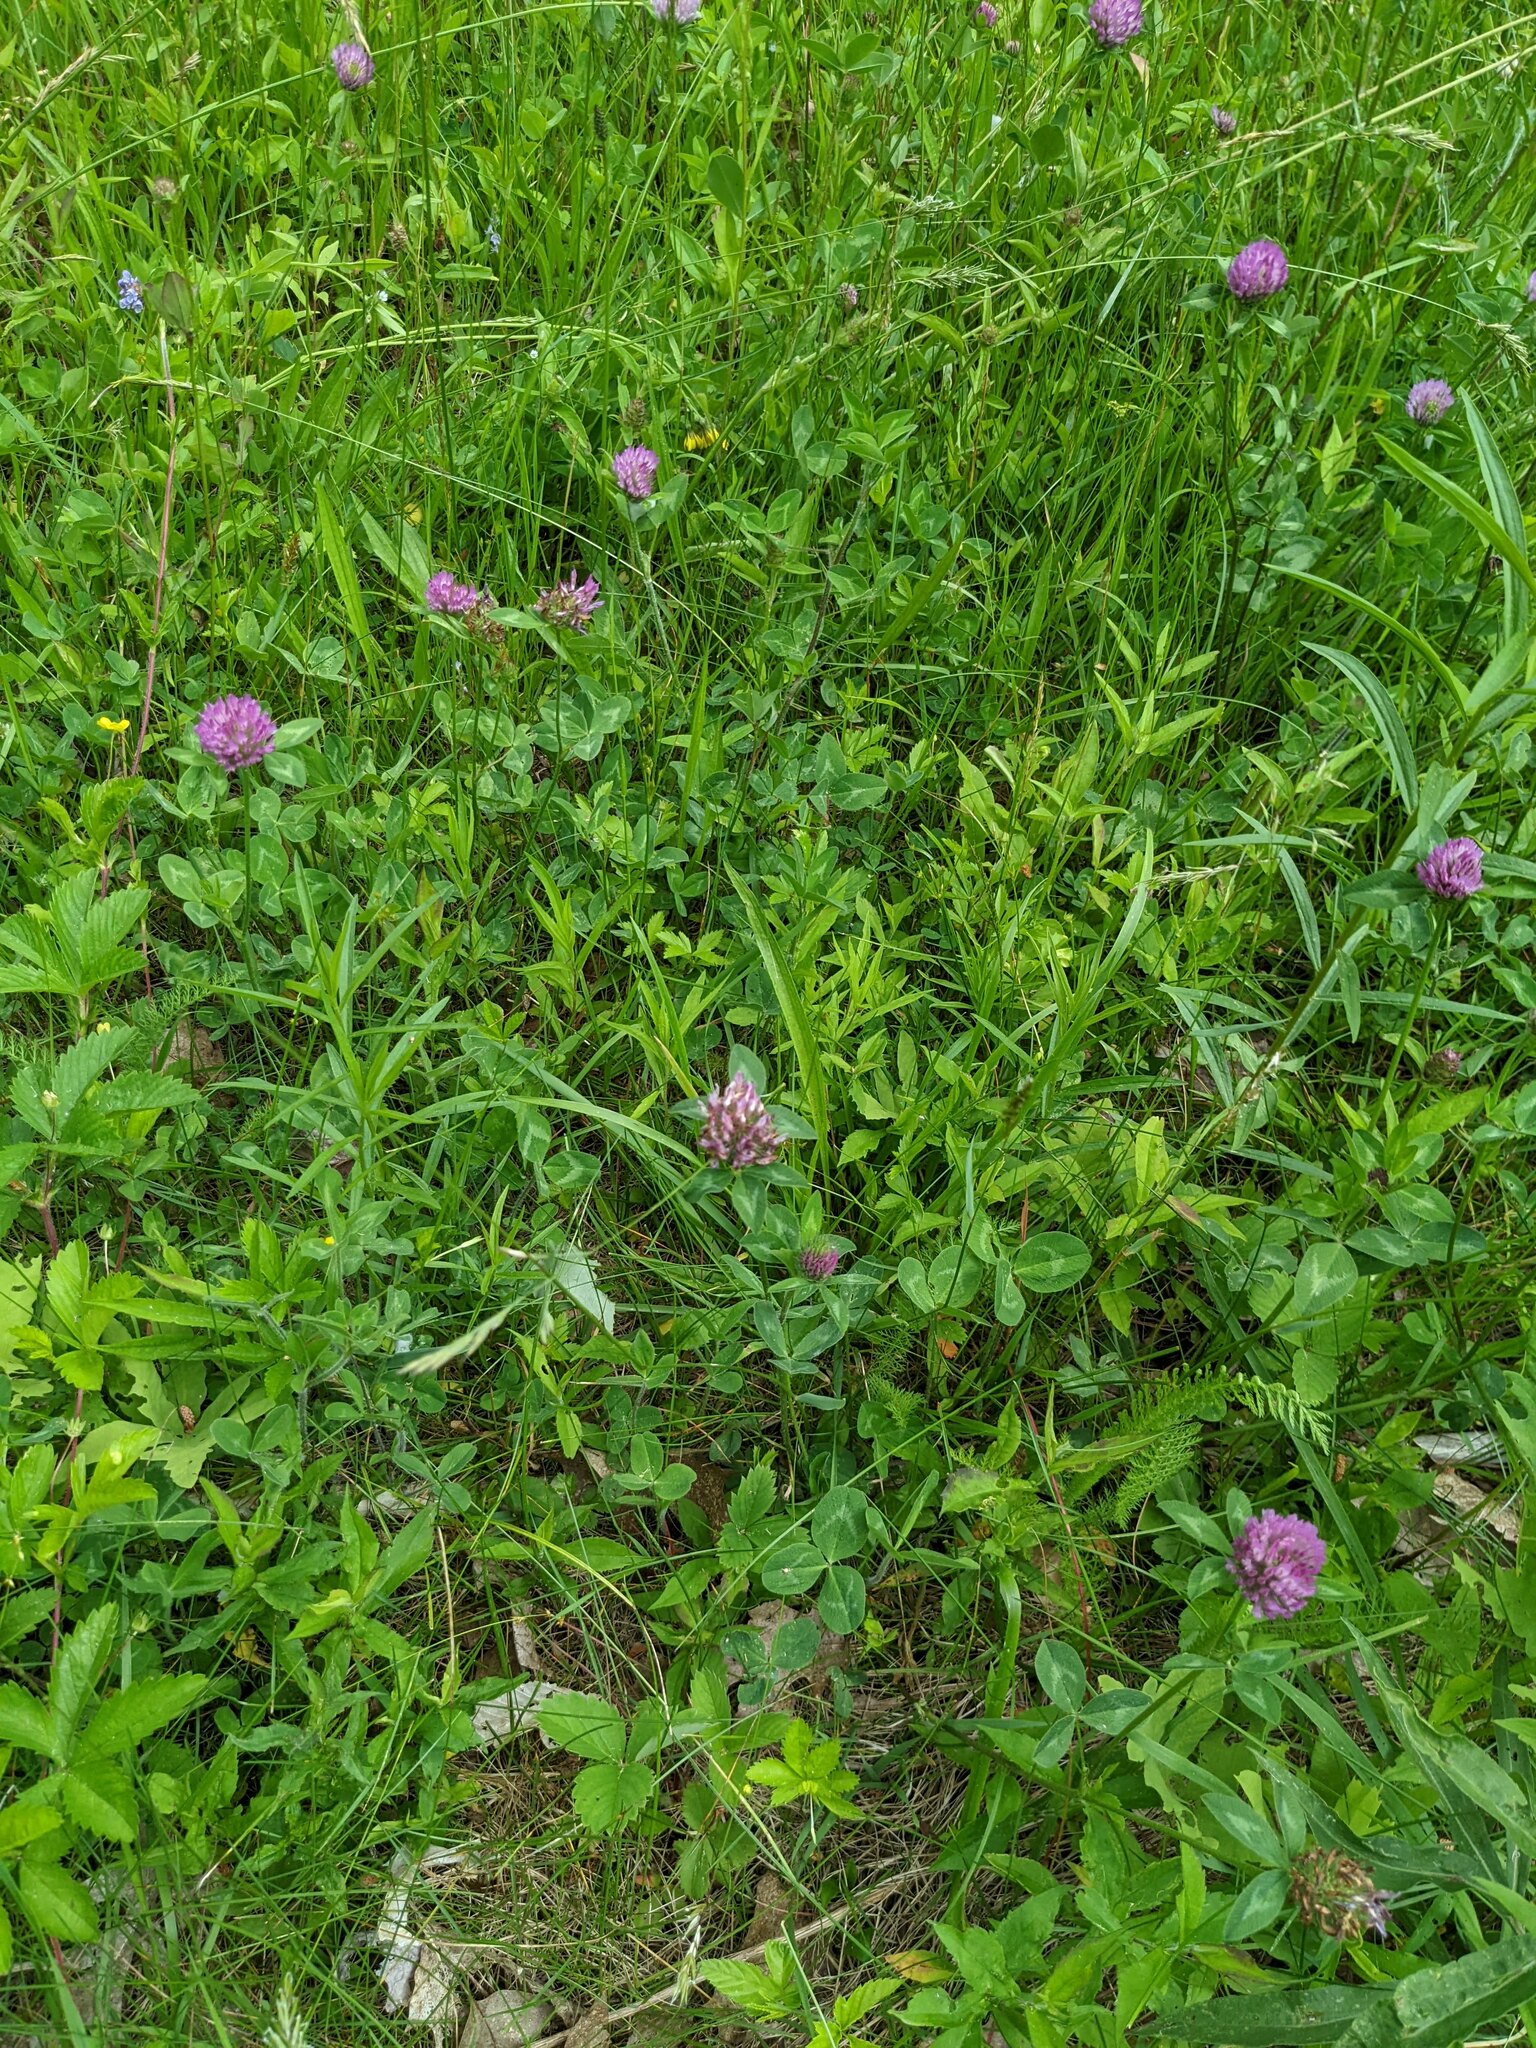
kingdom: Plantae
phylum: Tracheophyta
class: Magnoliopsida
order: Fabales
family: Fabaceae
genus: Trifolium
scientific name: Trifolium pratense
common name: Red clover
